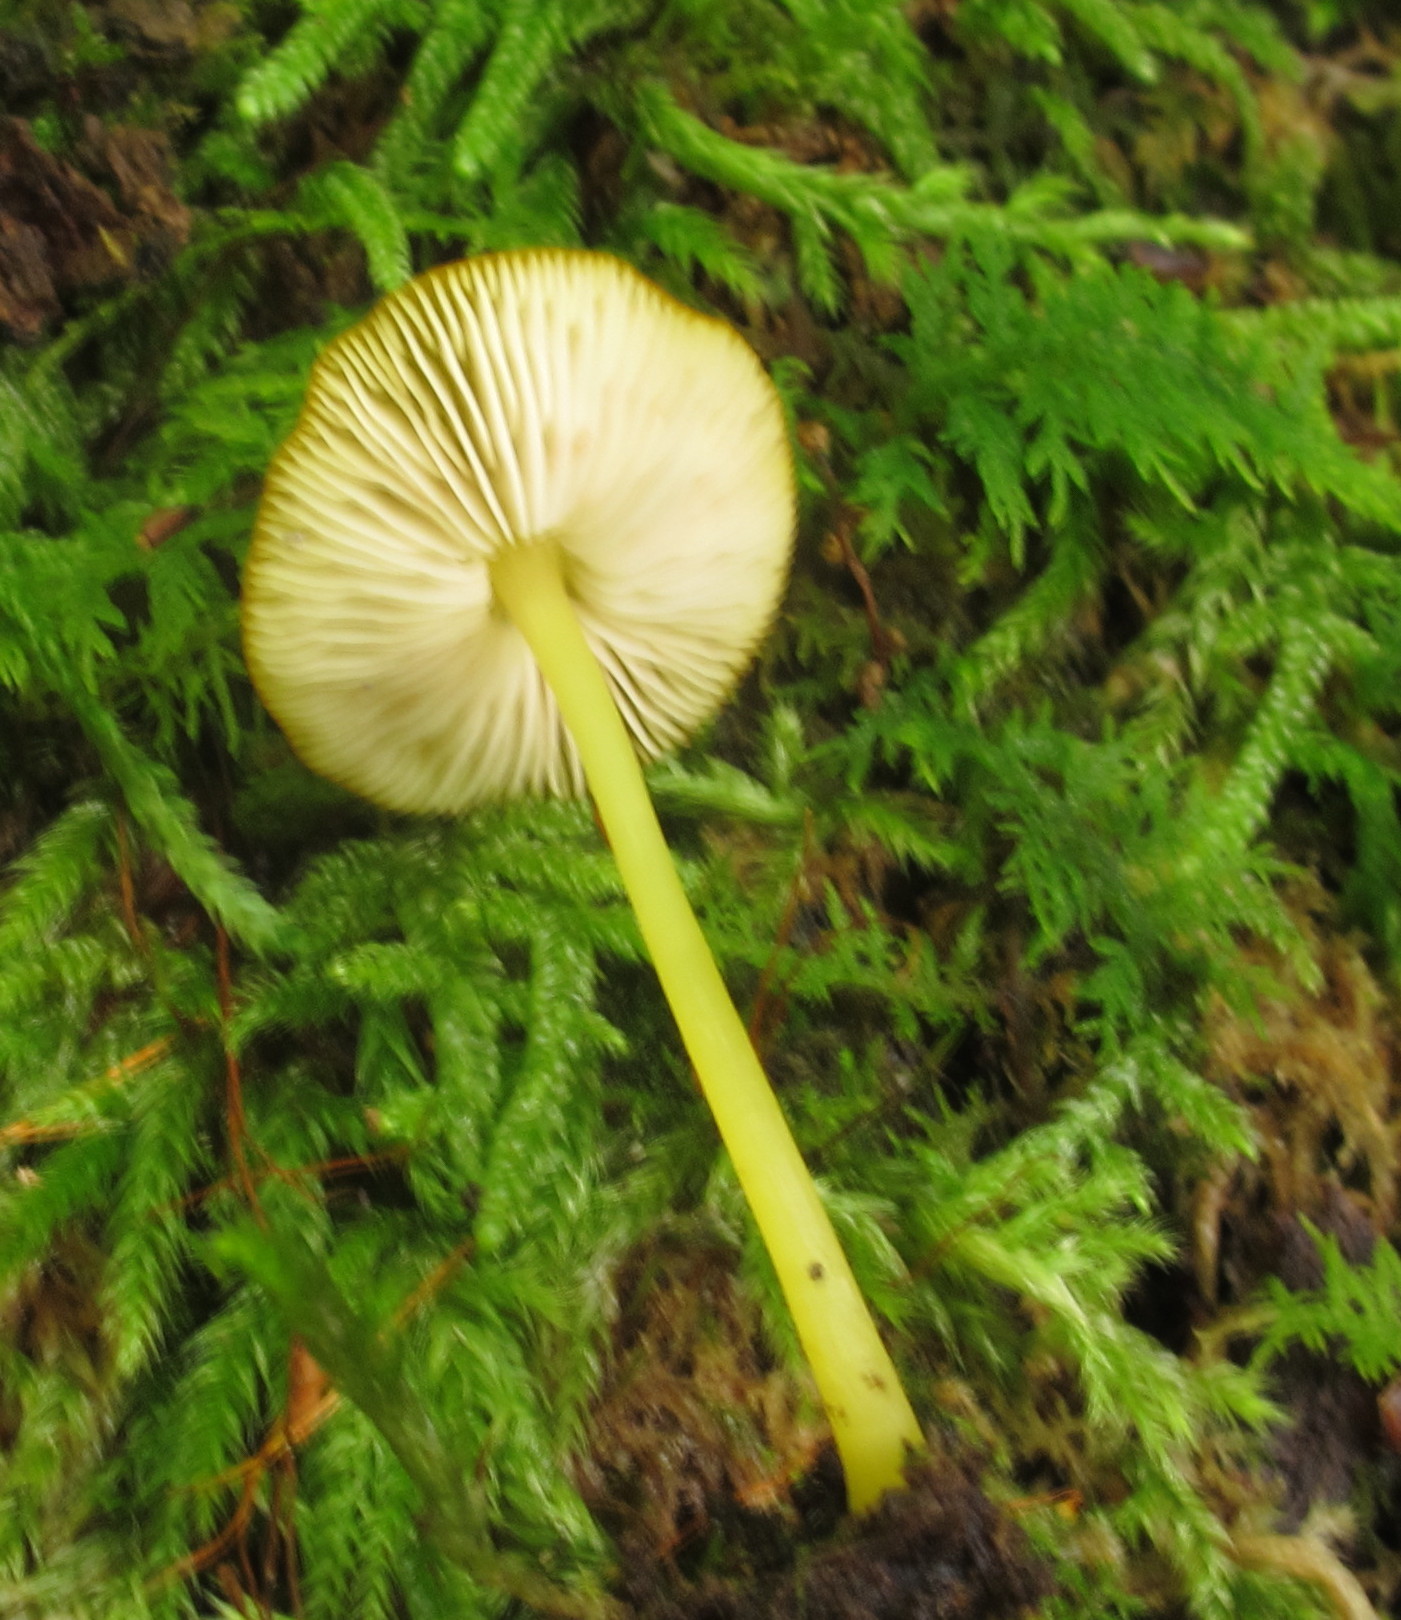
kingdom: Fungi
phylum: Basidiomycota
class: Agaricomycetes
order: Agaricales
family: Pluteaceae
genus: Pluteus
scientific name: Pluteus chrysophlebius
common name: Yellow deer mushroom
